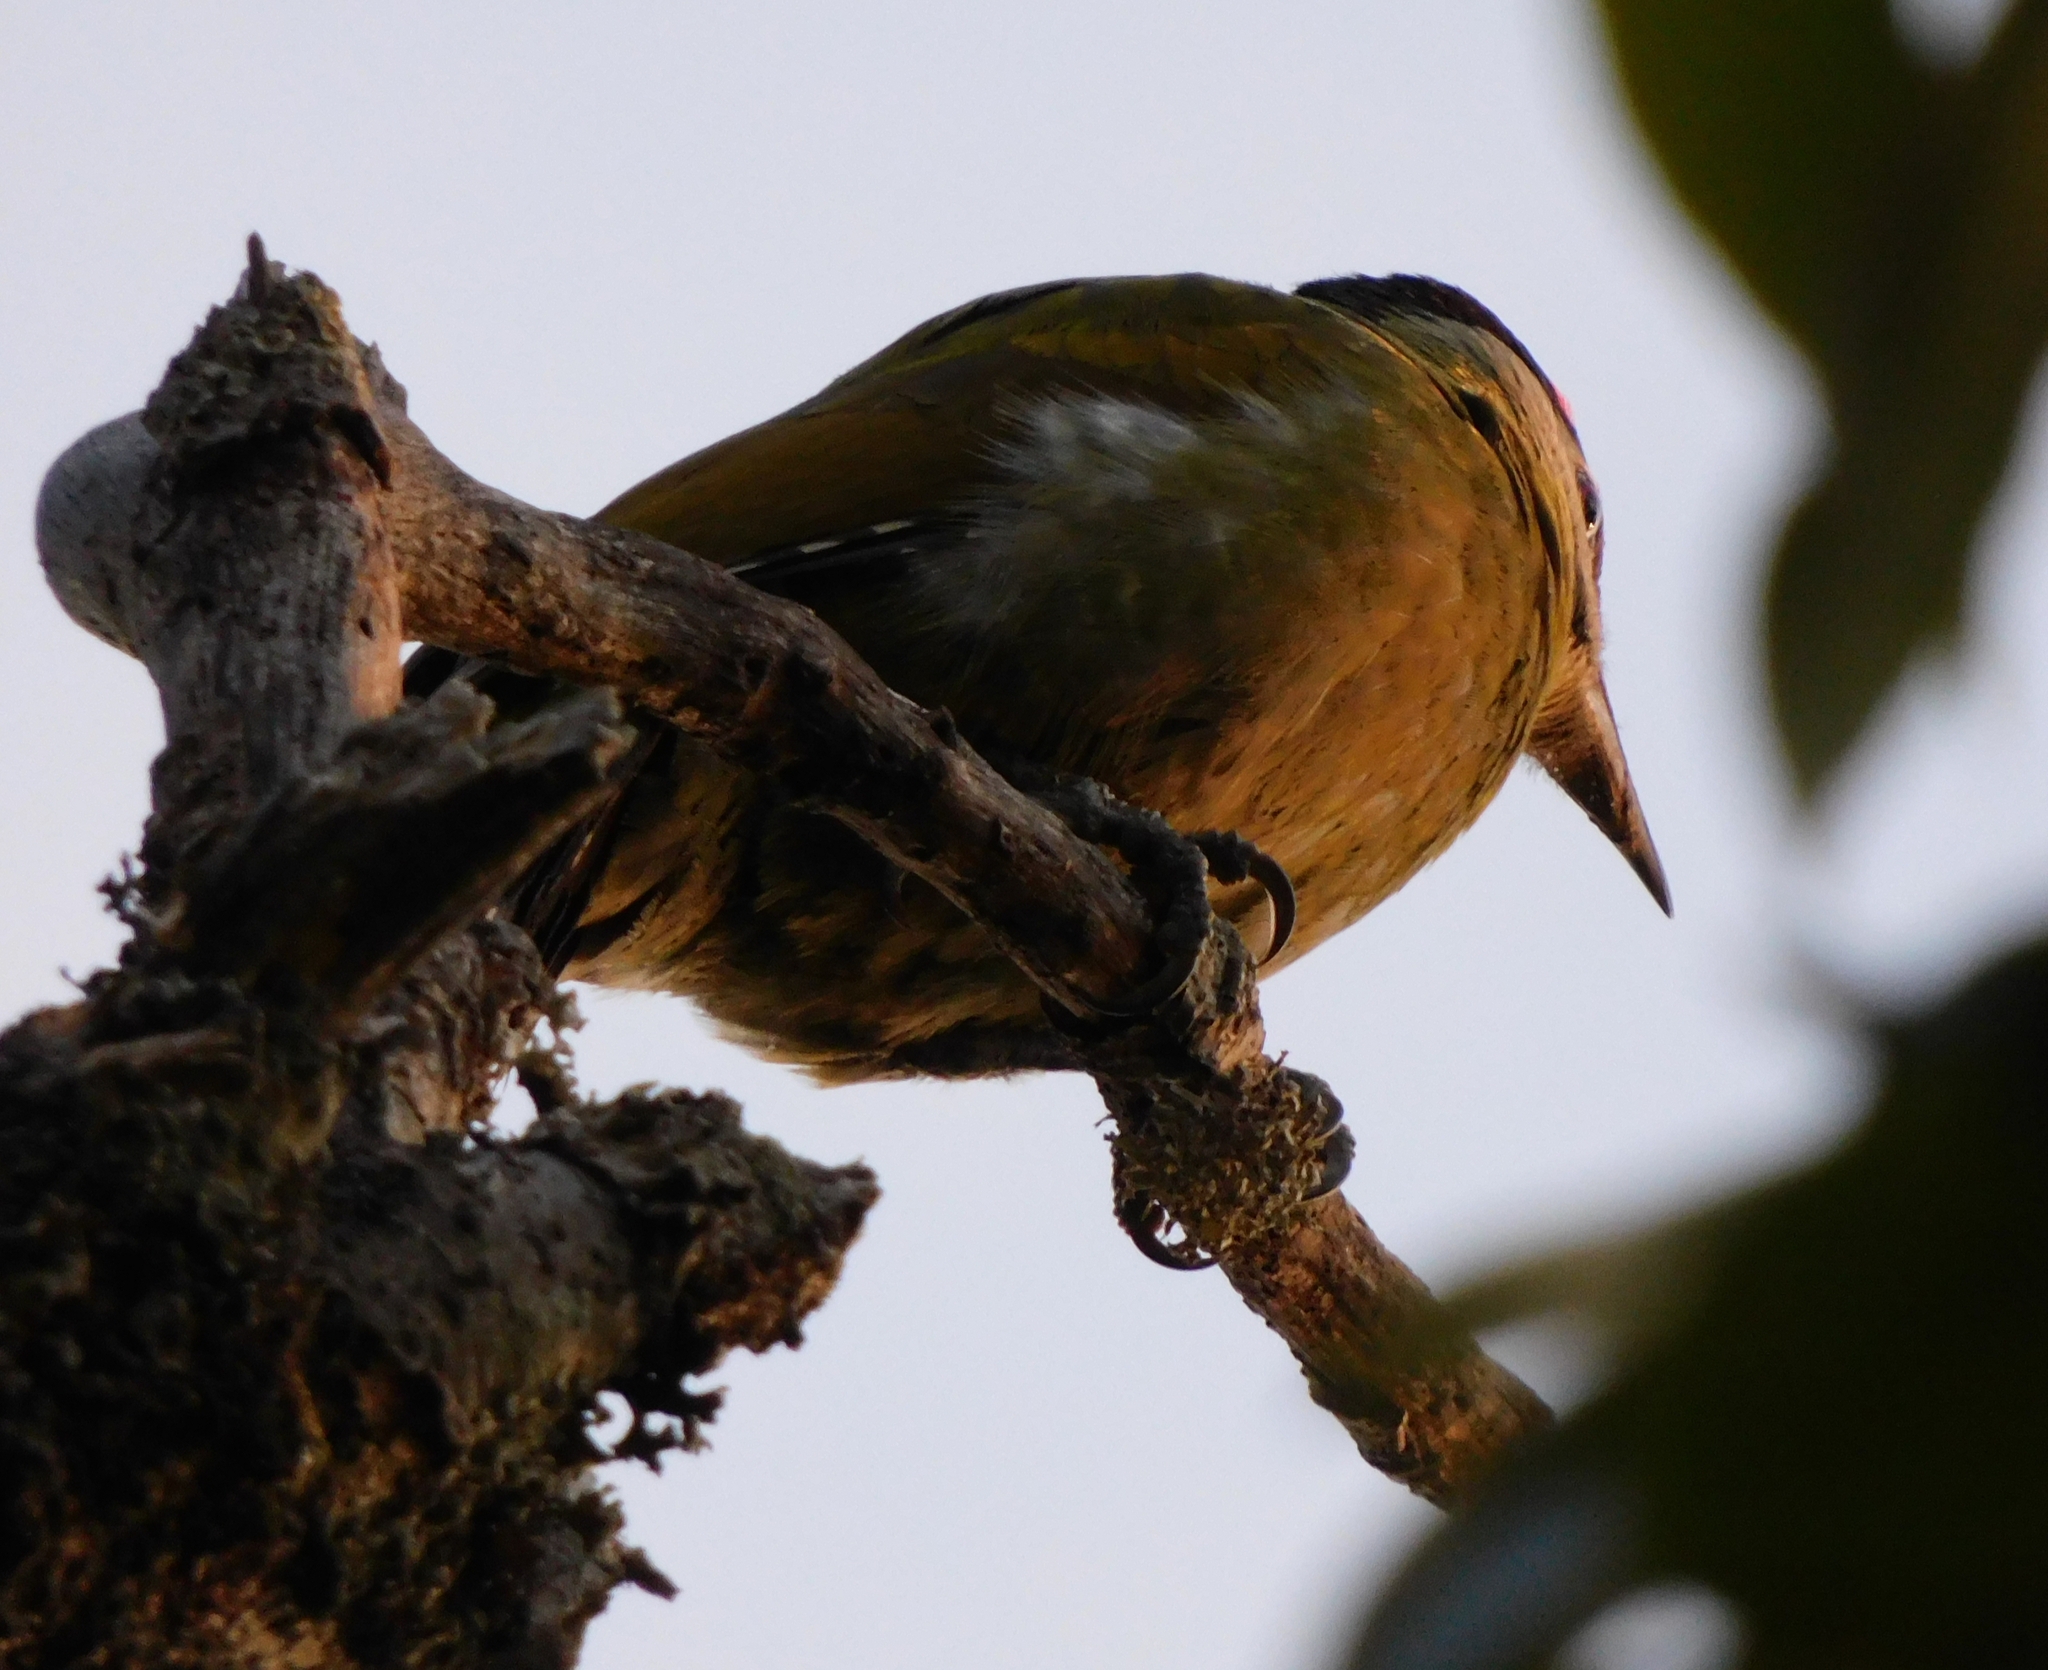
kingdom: Animalia
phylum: Chordata
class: Aves
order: Piciformes
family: Picidae
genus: Picus
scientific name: Picus canus
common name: Grey-headed woodpecker
